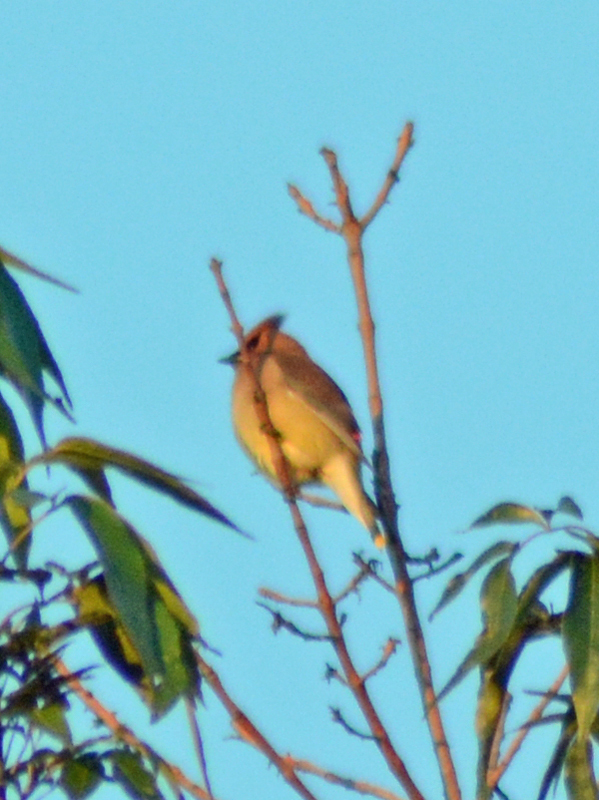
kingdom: Animalia
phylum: Chordata
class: Aves
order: Passeriformes
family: Bombycillidae
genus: Bombycilla
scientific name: Bombycilla cedrorum
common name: Cedar waxwing
